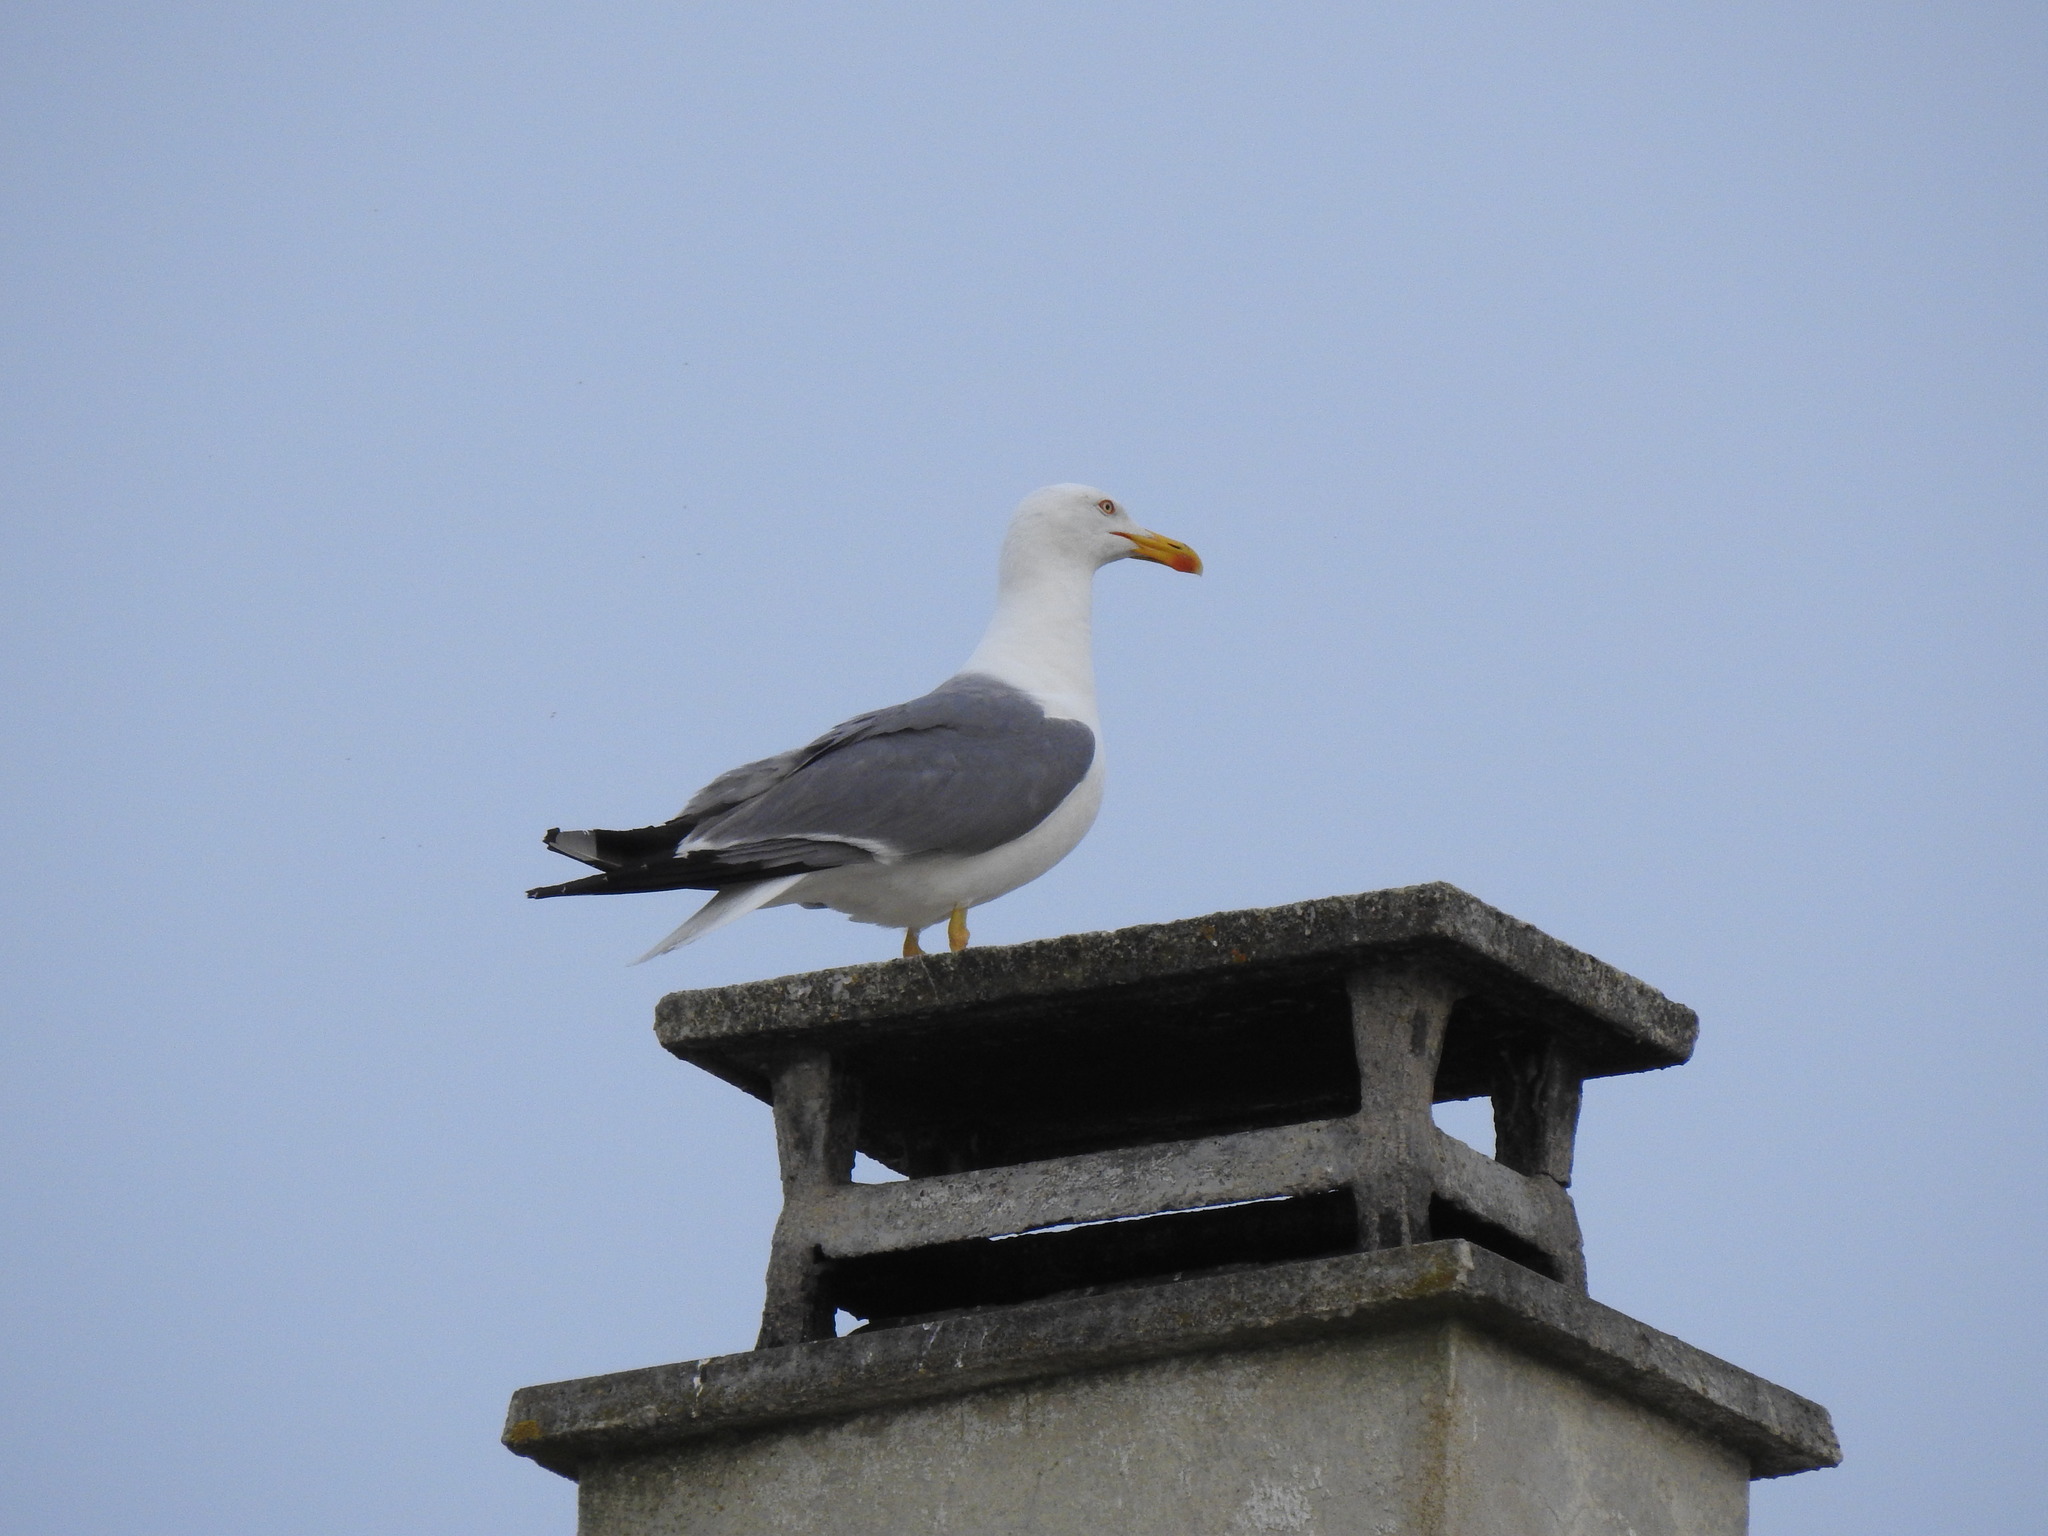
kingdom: Animalia
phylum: Chordata
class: Aves
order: Charadriiformes
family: Laridae
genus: Larus
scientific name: Larus michahellis
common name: Yellow-legged gull
